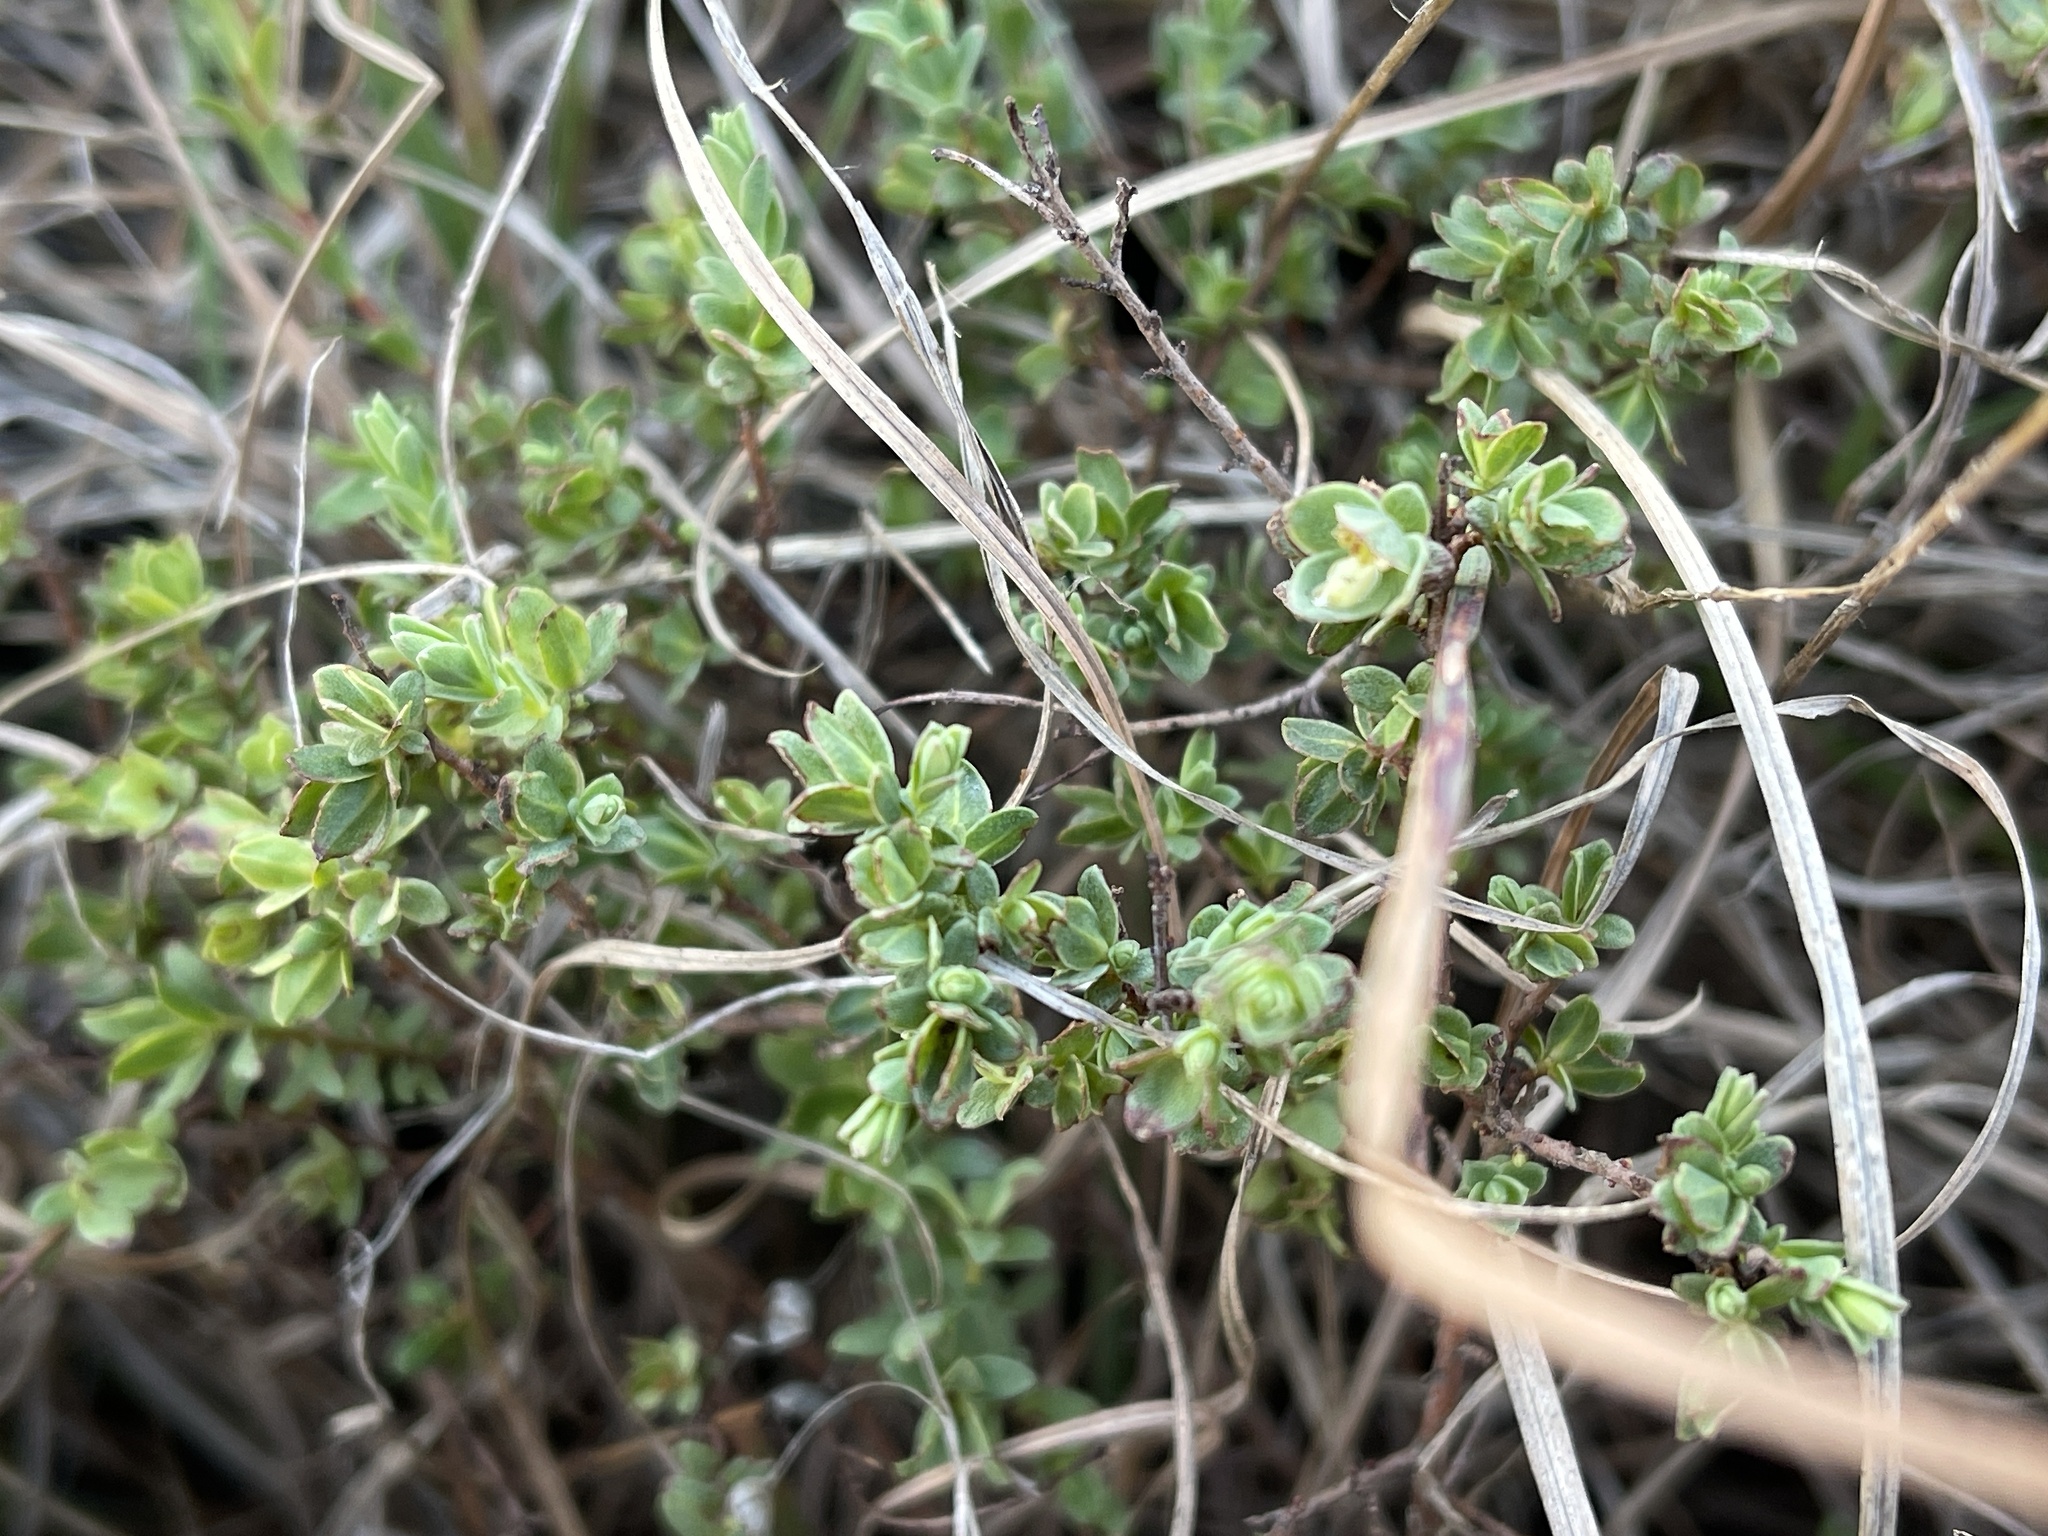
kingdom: Plantae
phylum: Tracheophyta
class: Magnoliopsida
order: Malvales
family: Thymelaeaceae
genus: Pimelea
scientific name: Pimelea spinescens
